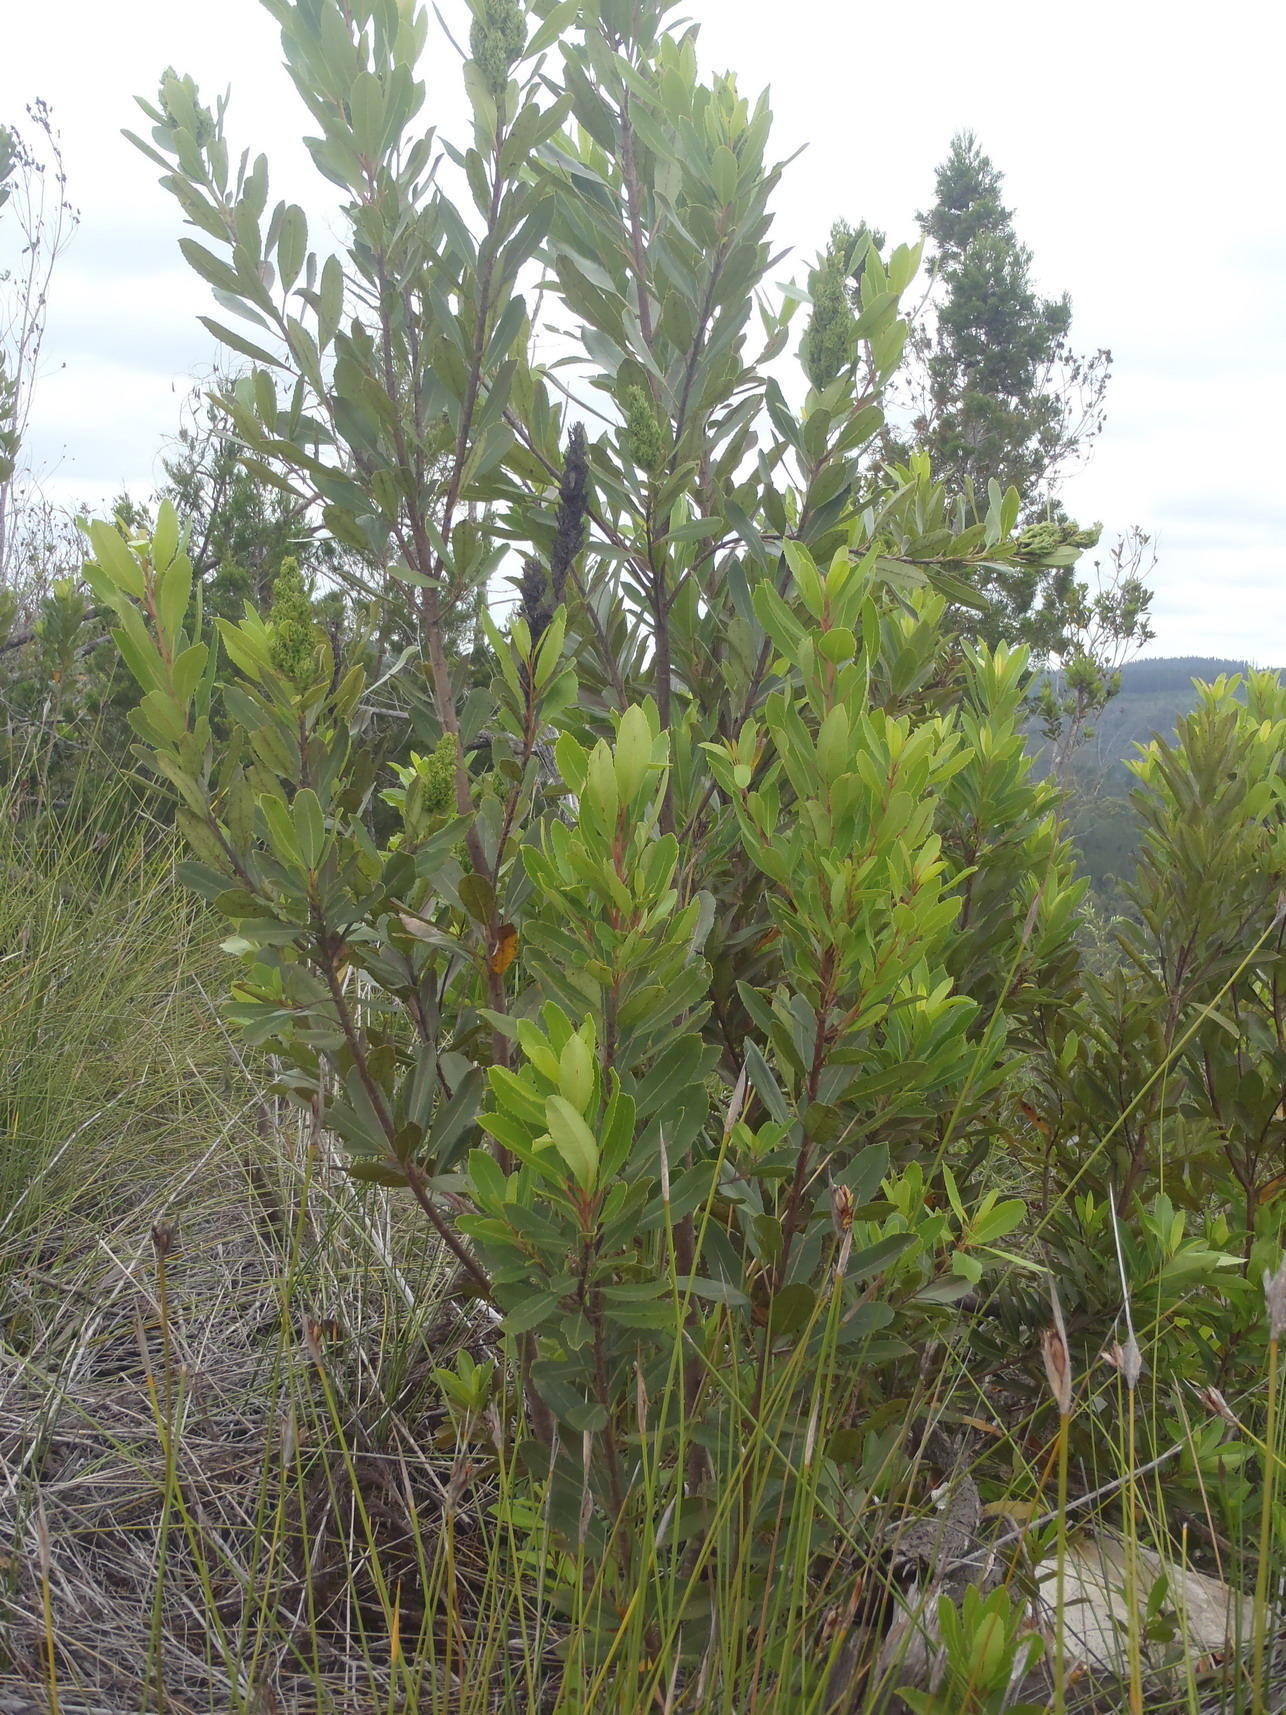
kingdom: Plantae
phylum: Tracheophyta
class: Magnoliopsida
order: Sapindales
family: Anacardiaceae
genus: Laurophyllus
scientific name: Laurophyllus capensis
